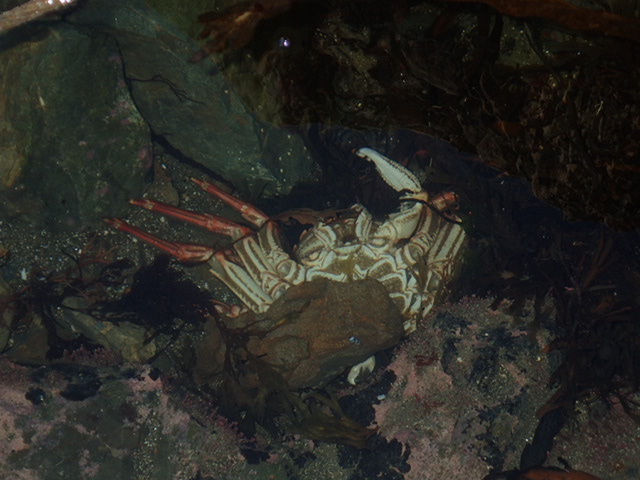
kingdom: Animalia
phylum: Arthropoda
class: Malacostraca
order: Decapoda
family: Plagusiidae
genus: Guinusia
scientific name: Guinusia chabrus
